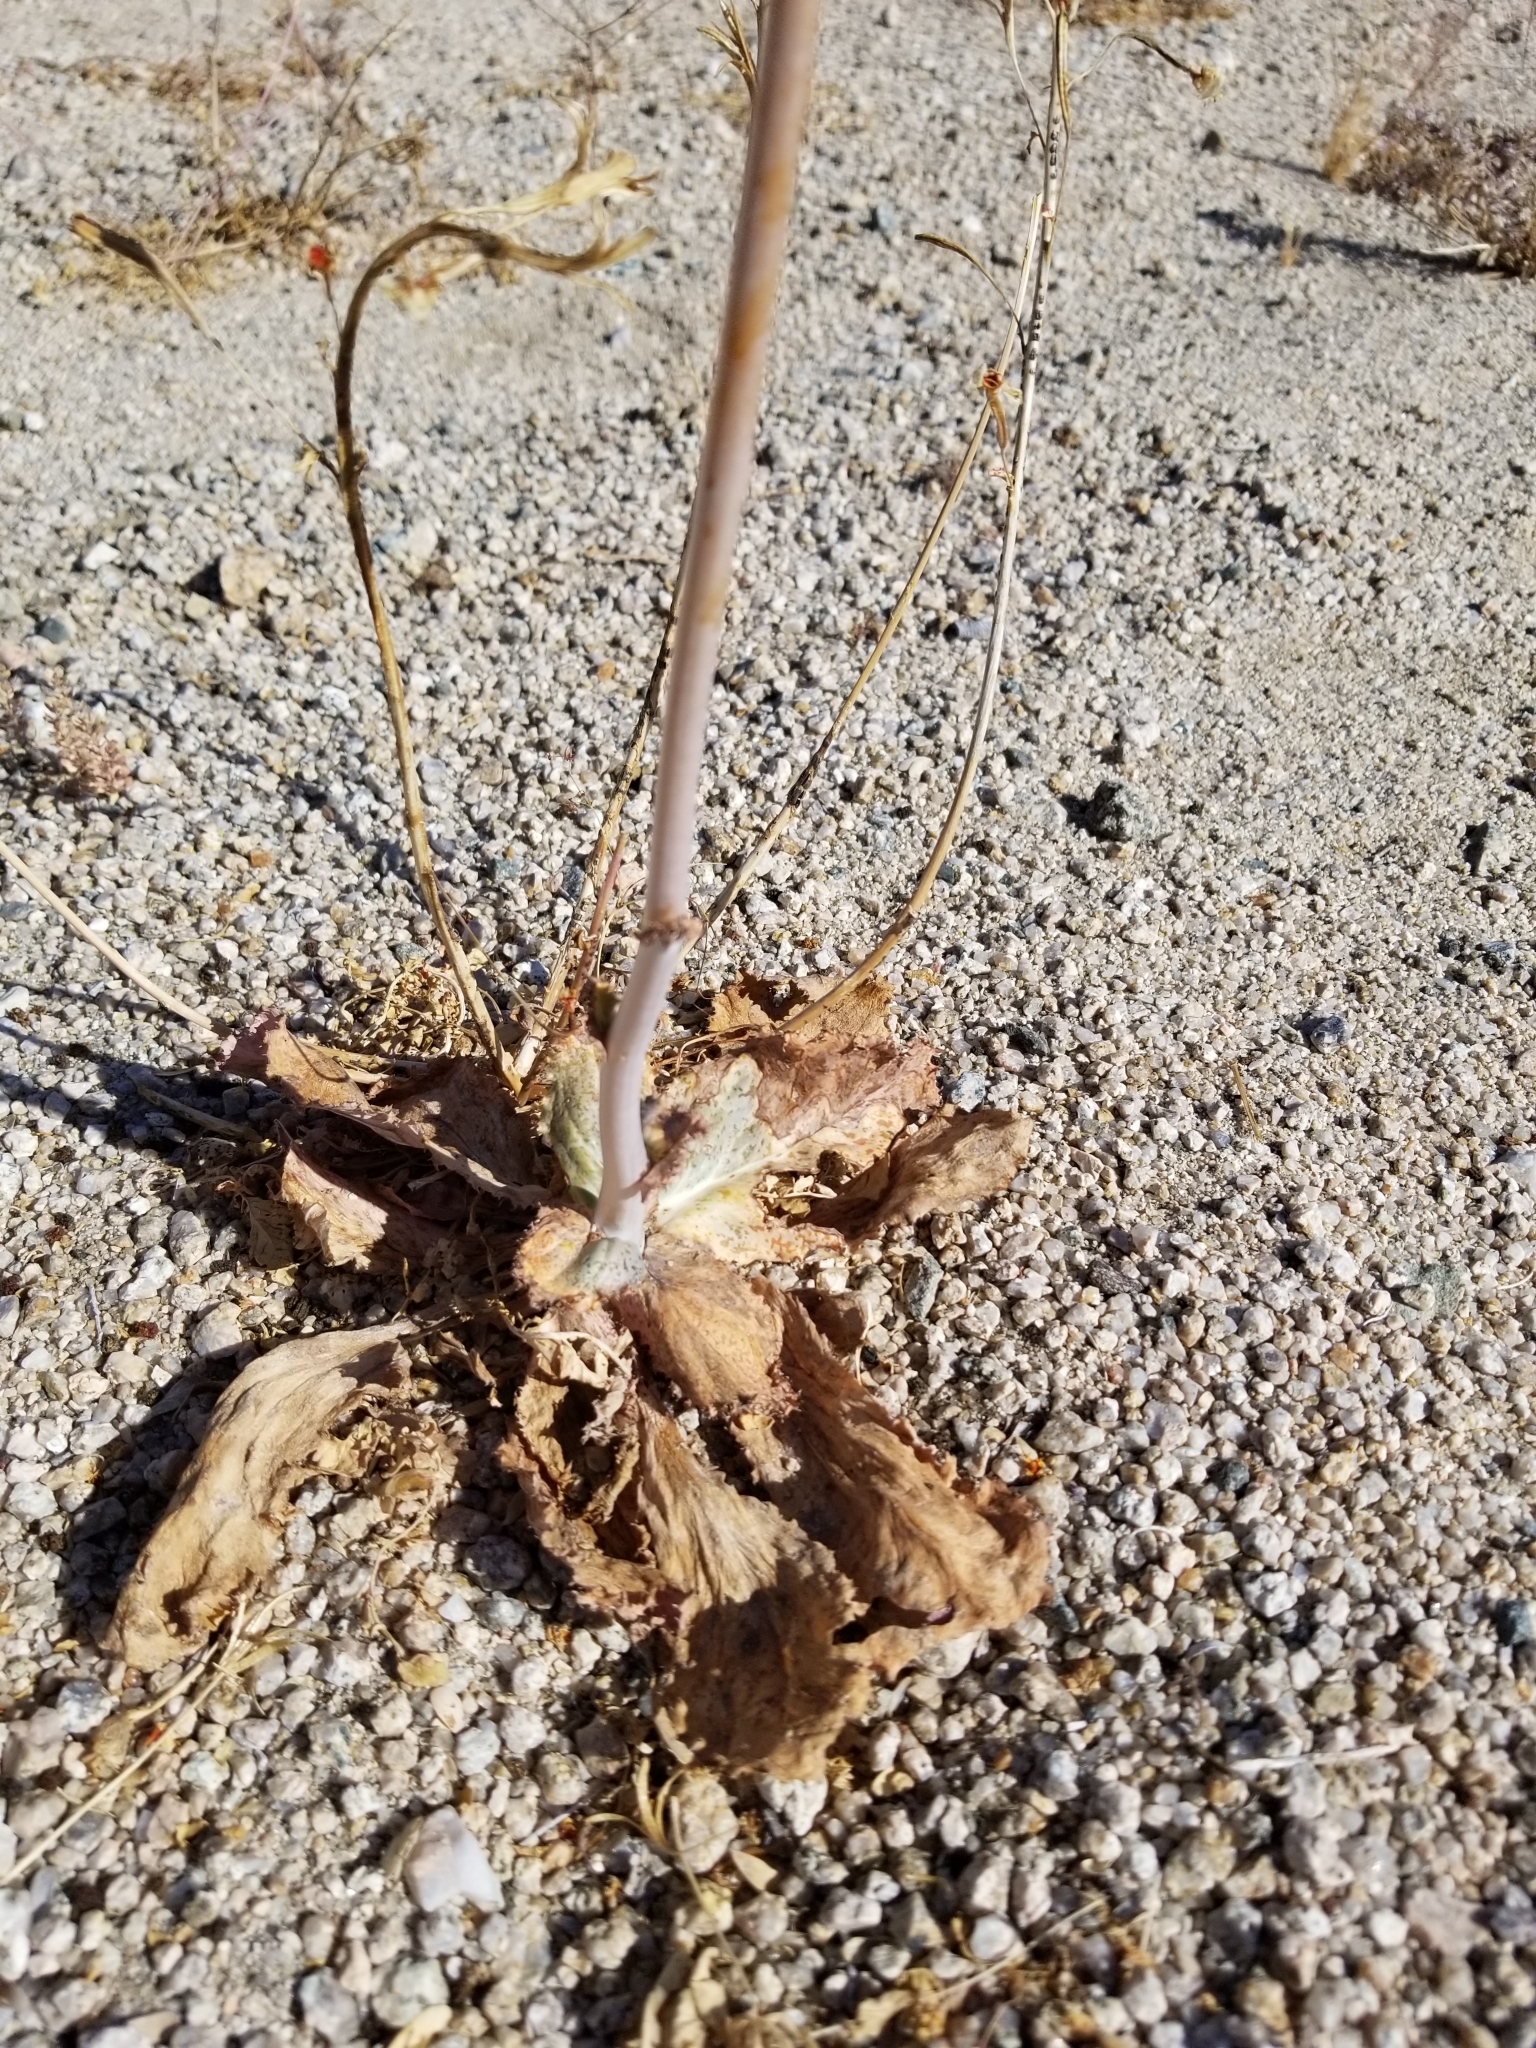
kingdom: Plantae
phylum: Tracheophyta
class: Magnoliopsida
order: Asterales
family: Asteraceae
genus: Atrichoseris
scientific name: Atrichoseris platyphylla
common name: Tobaccoweed
